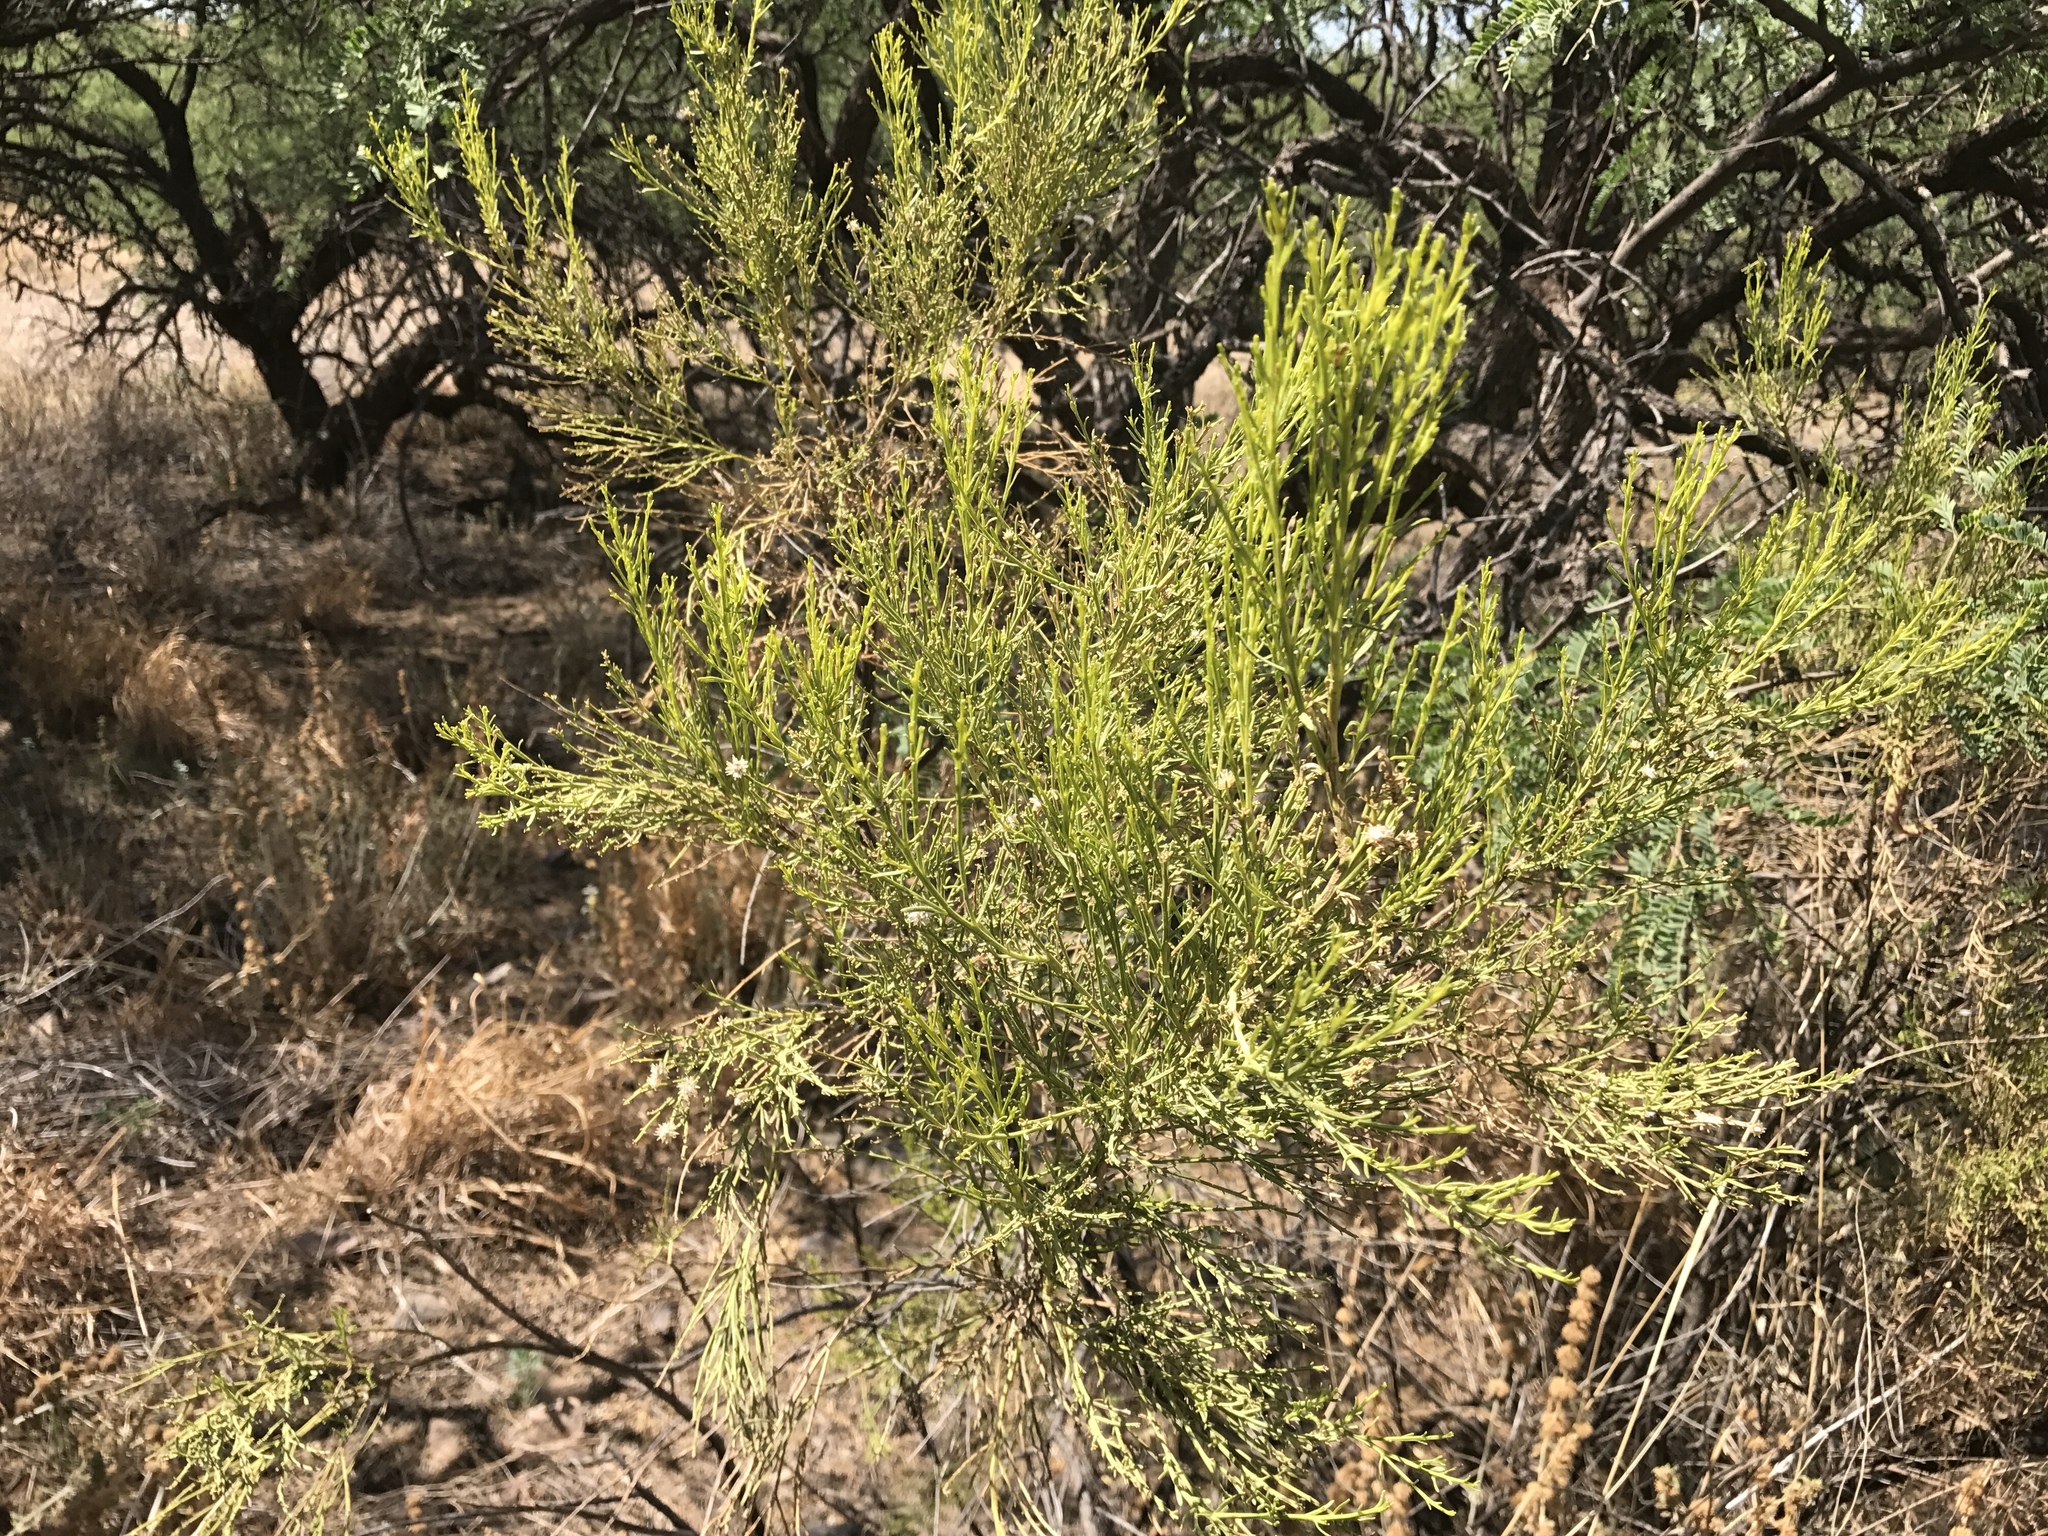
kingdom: Plantae
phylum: Tracheophyta
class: Magnoliopsida
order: Asterales
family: Asteraceae
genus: Baccharis
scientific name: Baccharis sarothroides
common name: Desert-broom
